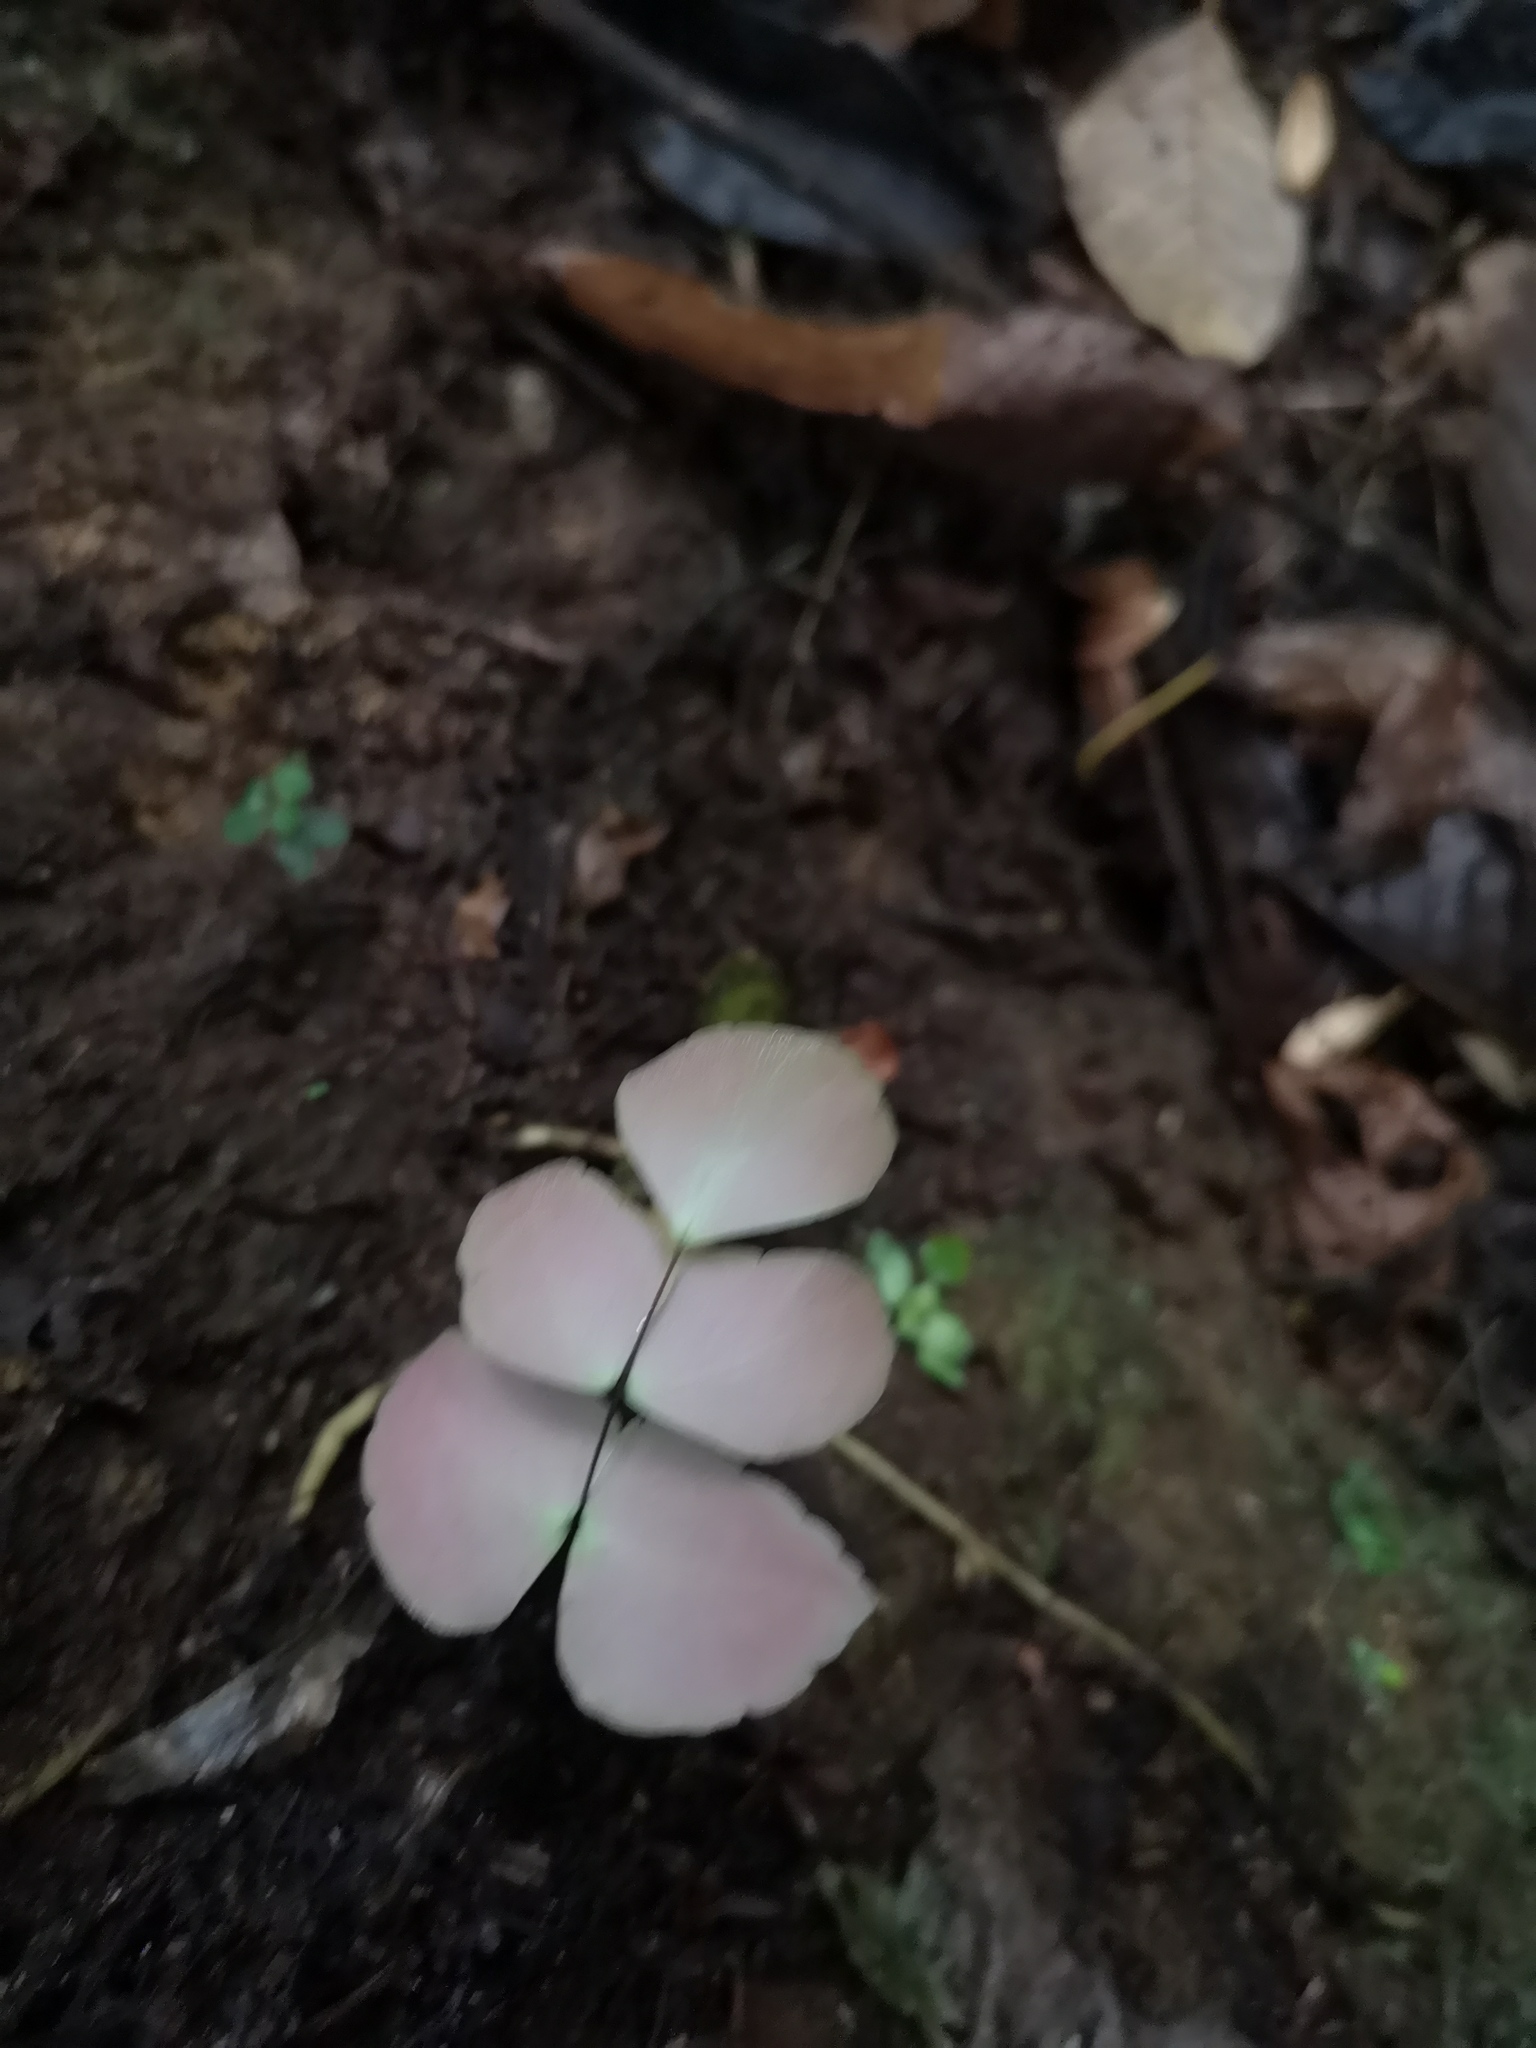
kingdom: Plantae
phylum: Tracheophyta
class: Polypodiopsida
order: Polypodiales
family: Pteridaceae
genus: Adiantum
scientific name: Adiantum macrophyllum
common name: Largeleaf maidenhair
